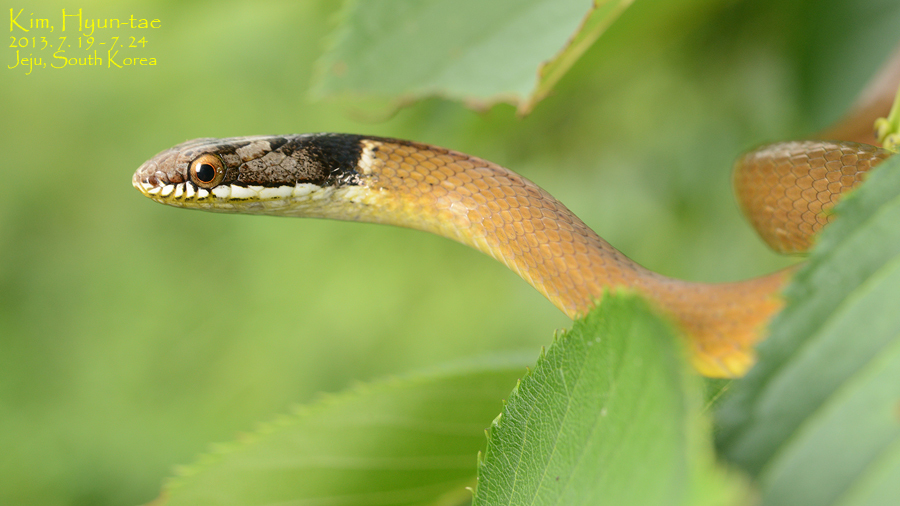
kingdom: Animalia
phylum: Chordata
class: Squamata
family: Colubridae
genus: Sibynophis
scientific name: Sibynophis chinensis
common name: Chinese many-tooth snake
